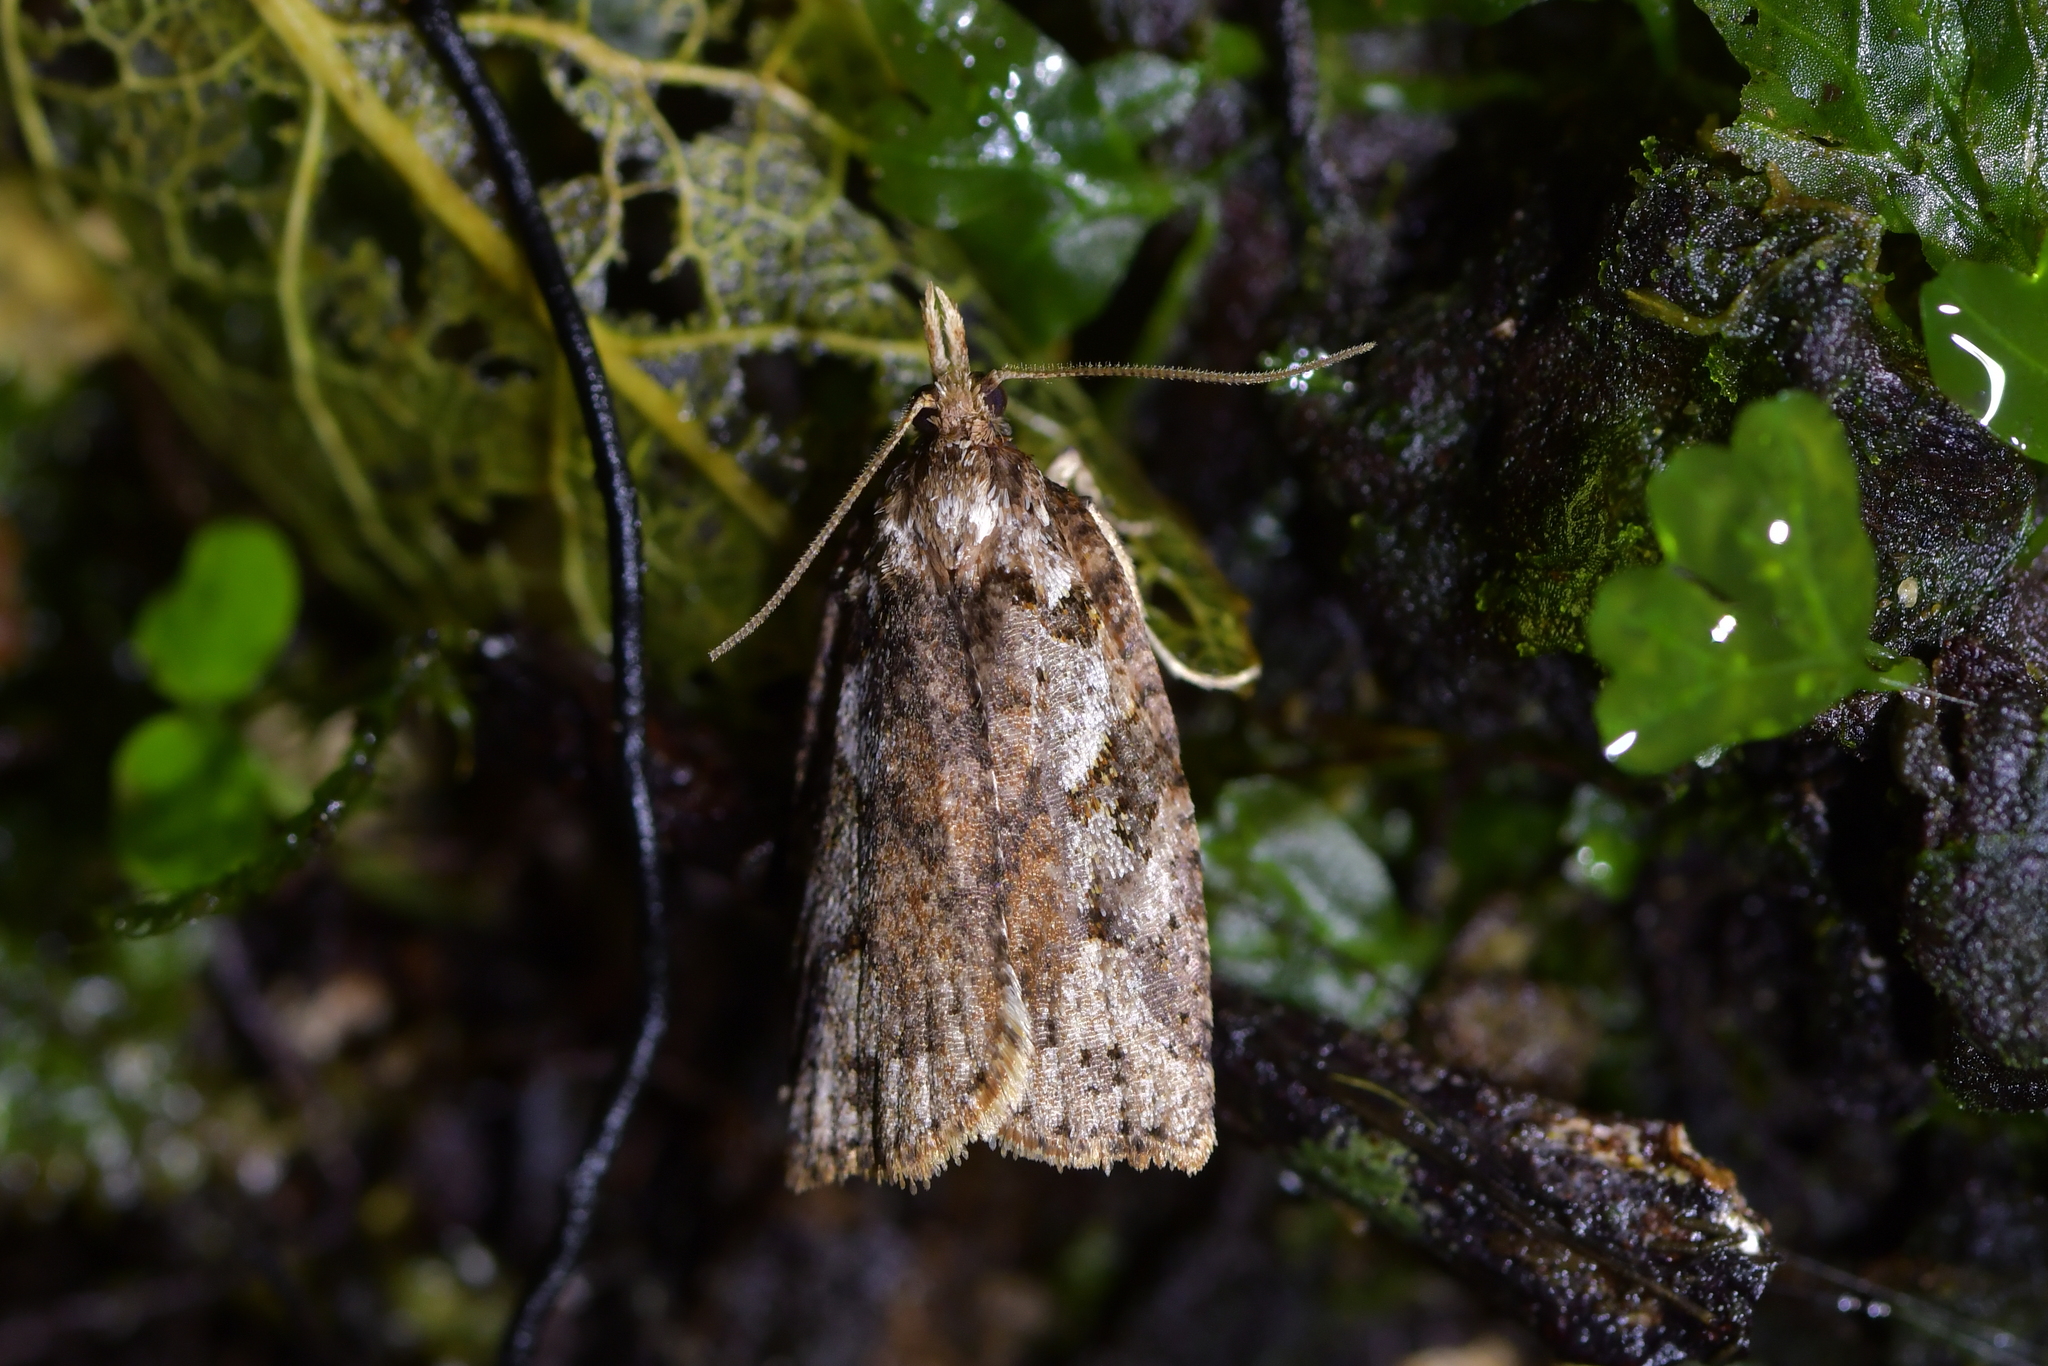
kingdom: Animalia
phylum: Arthropoda
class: Insecta
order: Lepidoptera
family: Tortricidae
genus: Ctenopseustis
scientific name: Ctenopseustis obliquana
